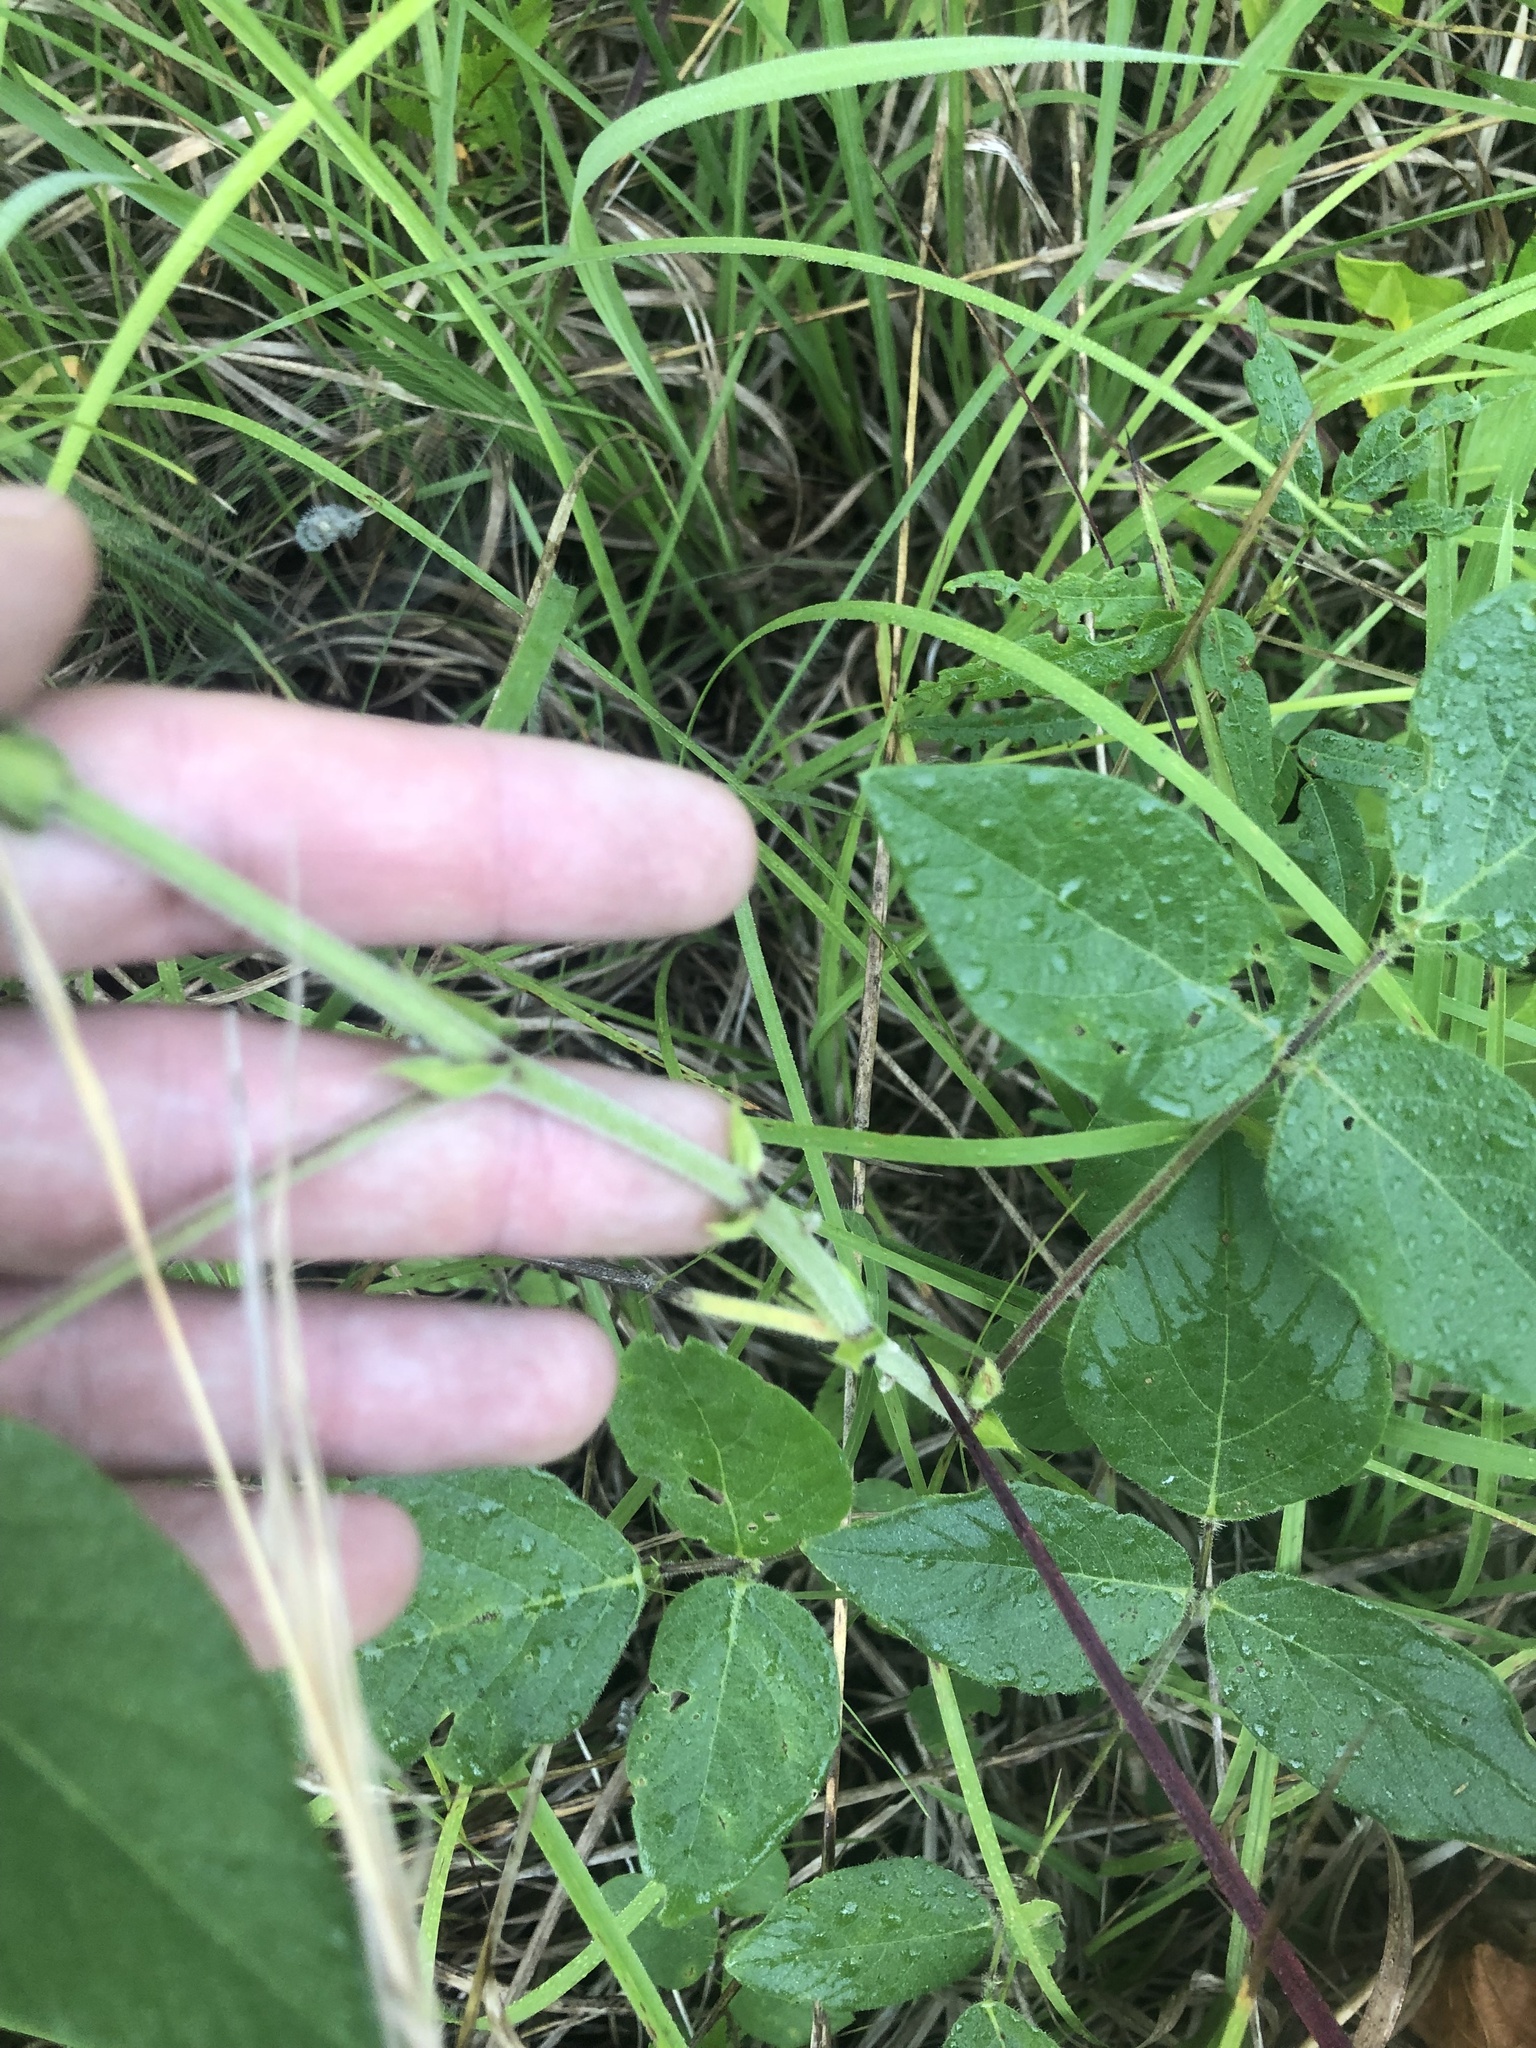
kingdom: Plantae
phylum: Tracheophyta
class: Magnoliopsida
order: Fabales
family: Fabaceae
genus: Desmodium
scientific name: Desmodium canescens
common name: Hoary tick-clover
